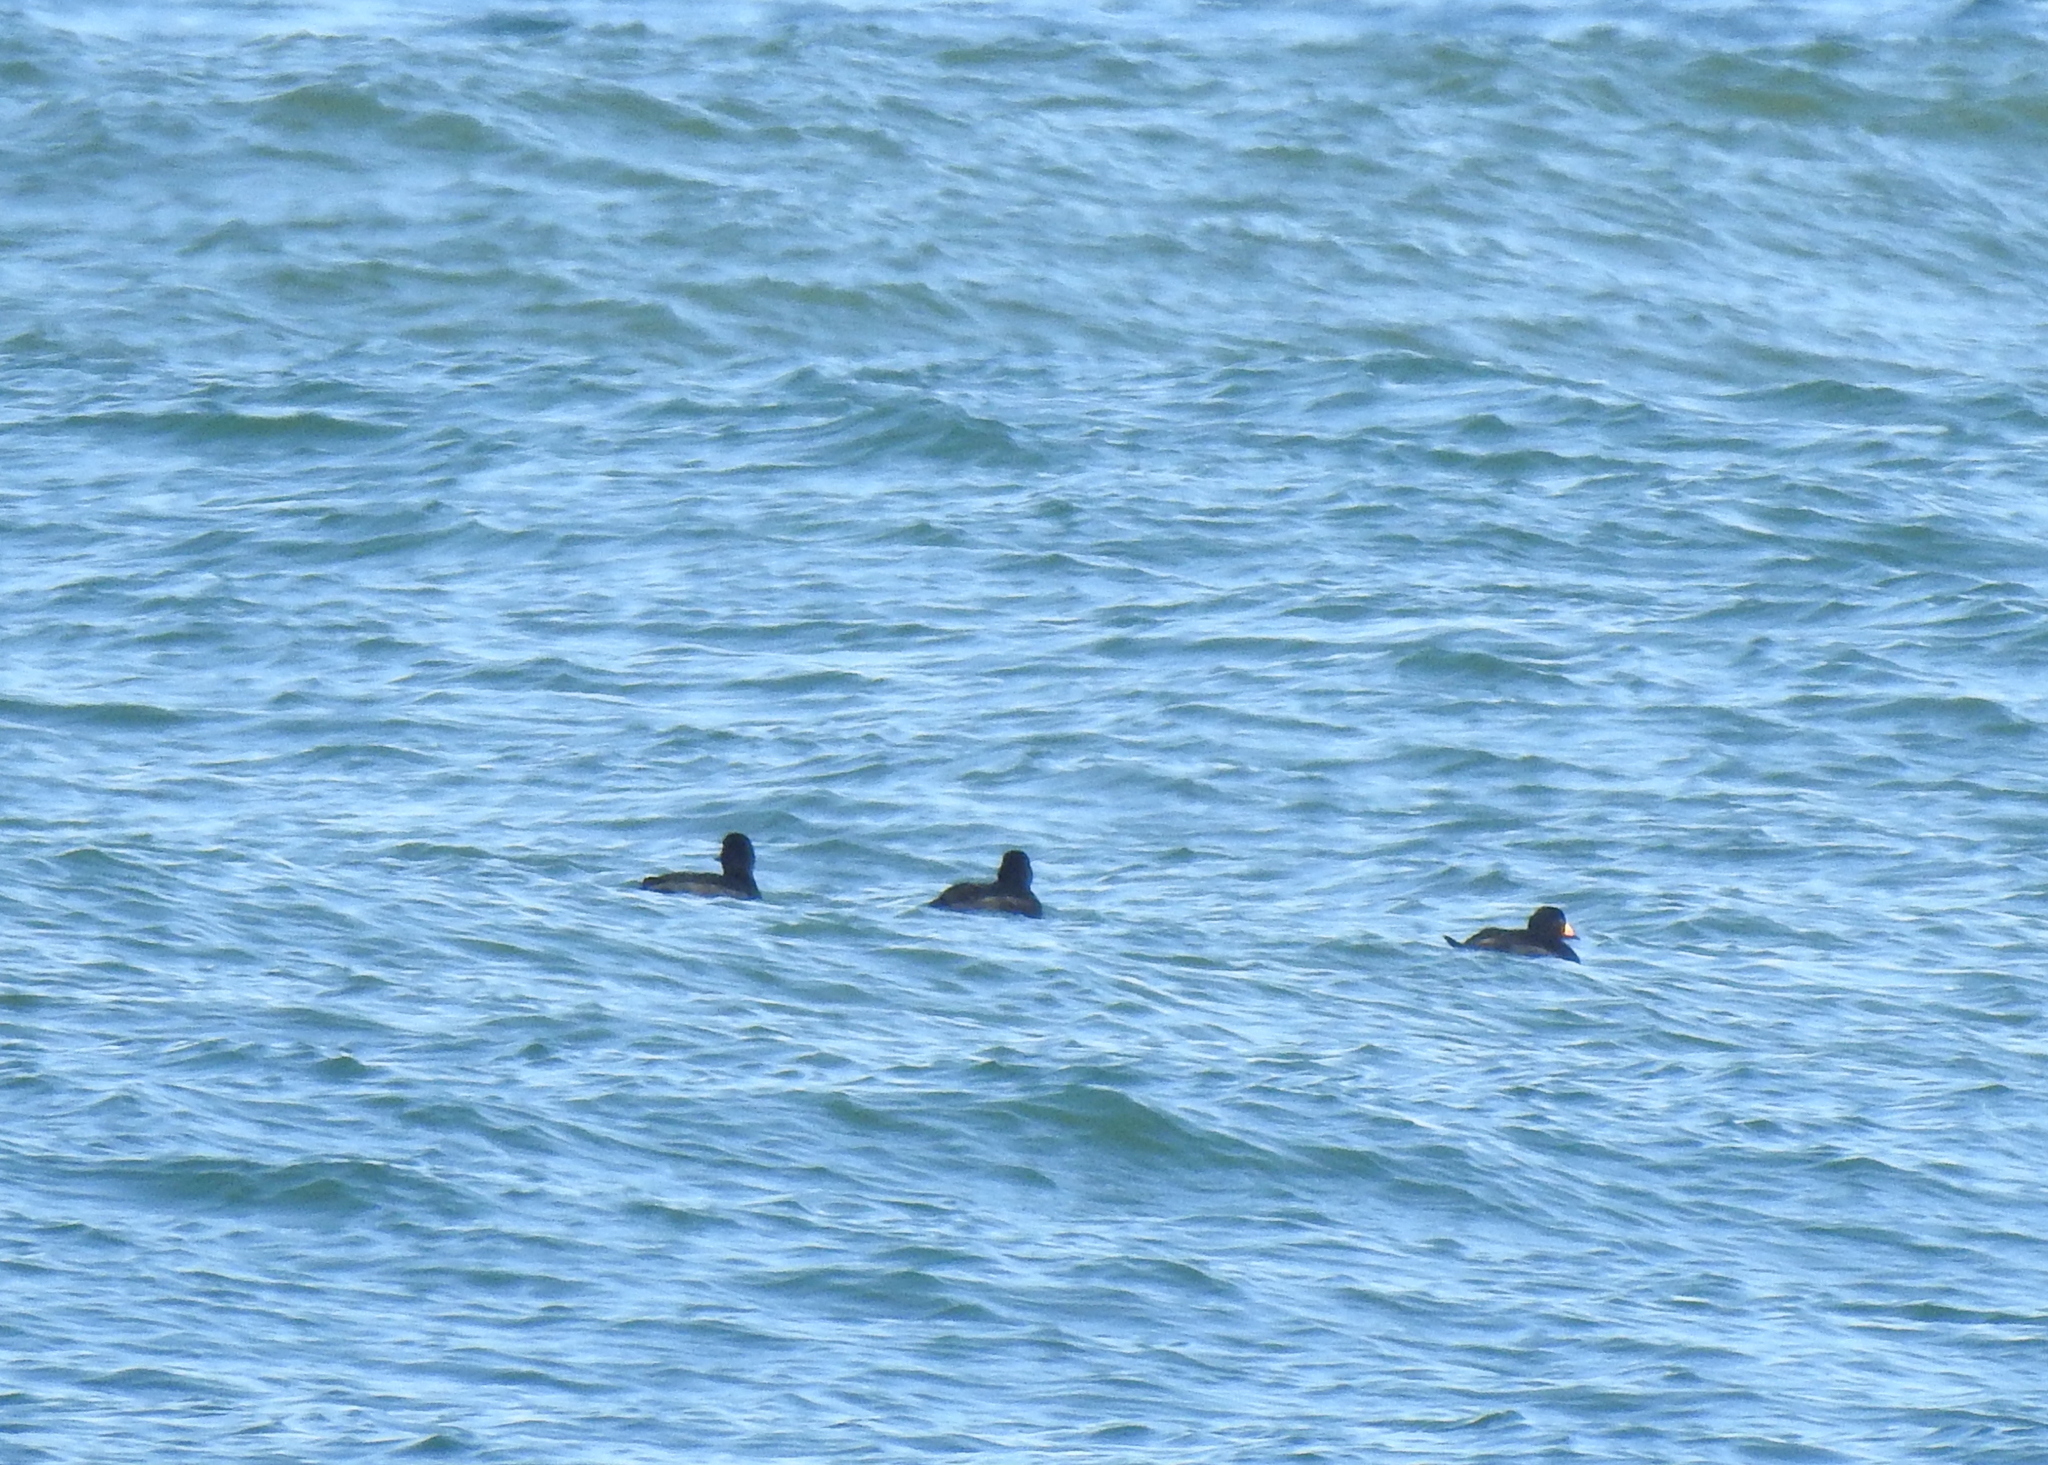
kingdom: Animalia
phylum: Chordata
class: Aves
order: Anseriformes
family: Anatidae
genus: Melanitta
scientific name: Melanitta americana
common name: Black scoter
